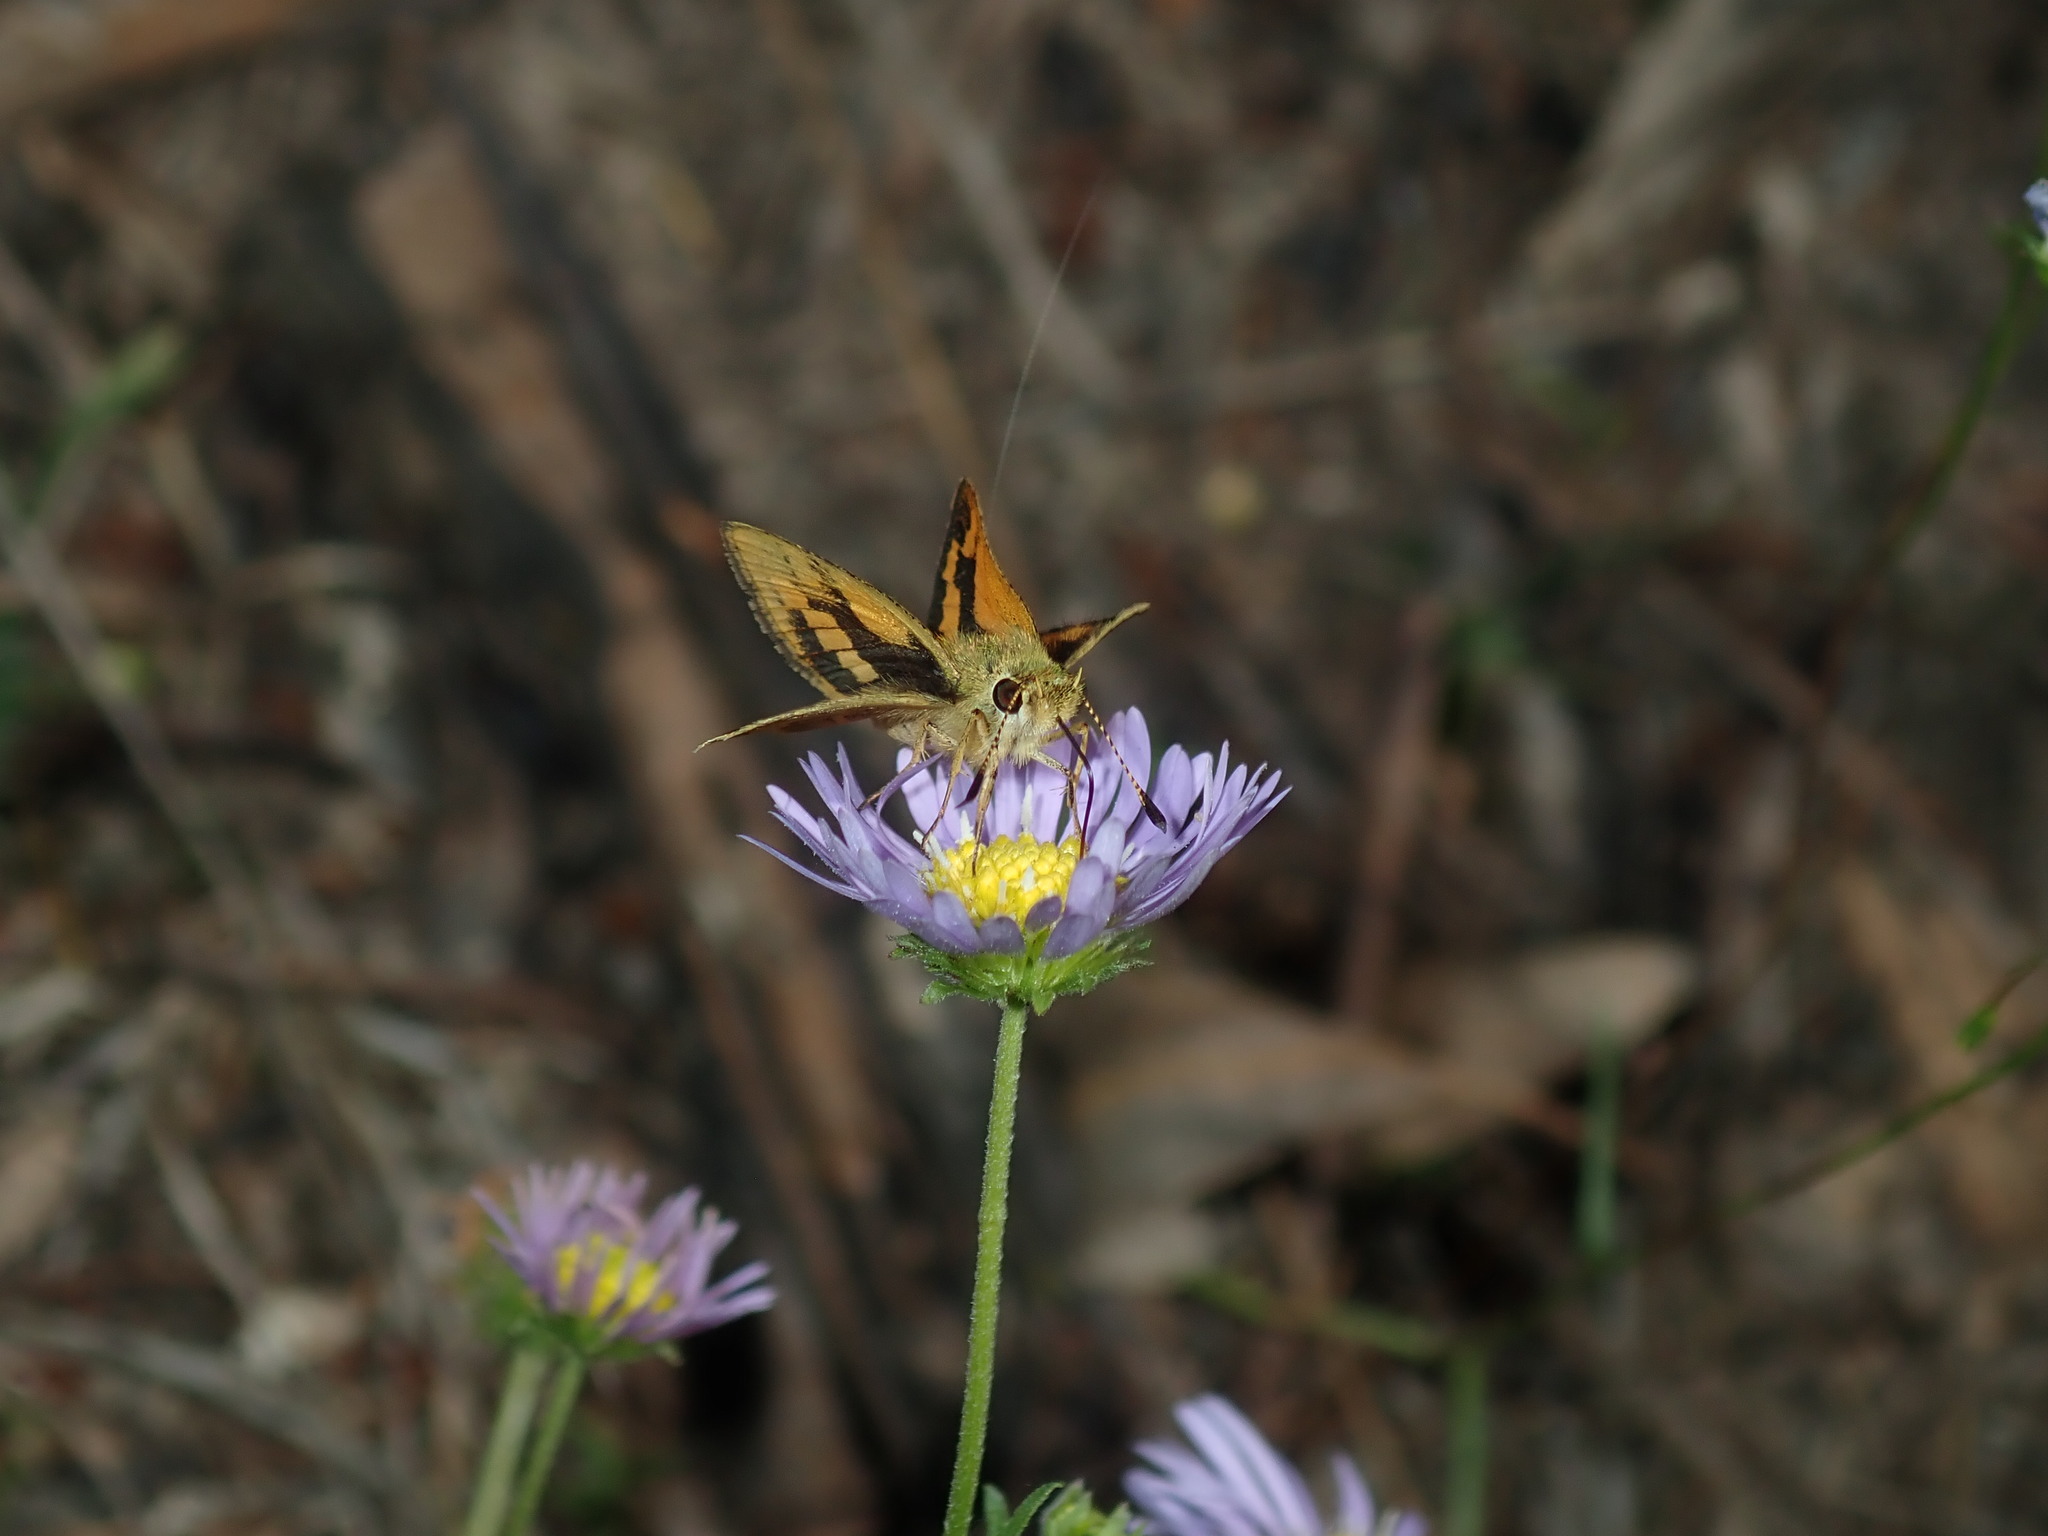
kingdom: Animalia
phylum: Arthropoda
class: Insecta
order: Lepidoptera
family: Hesperiidae
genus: Ocybadistes
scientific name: Ocybadistes walkeri
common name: Yellow-banded dart
